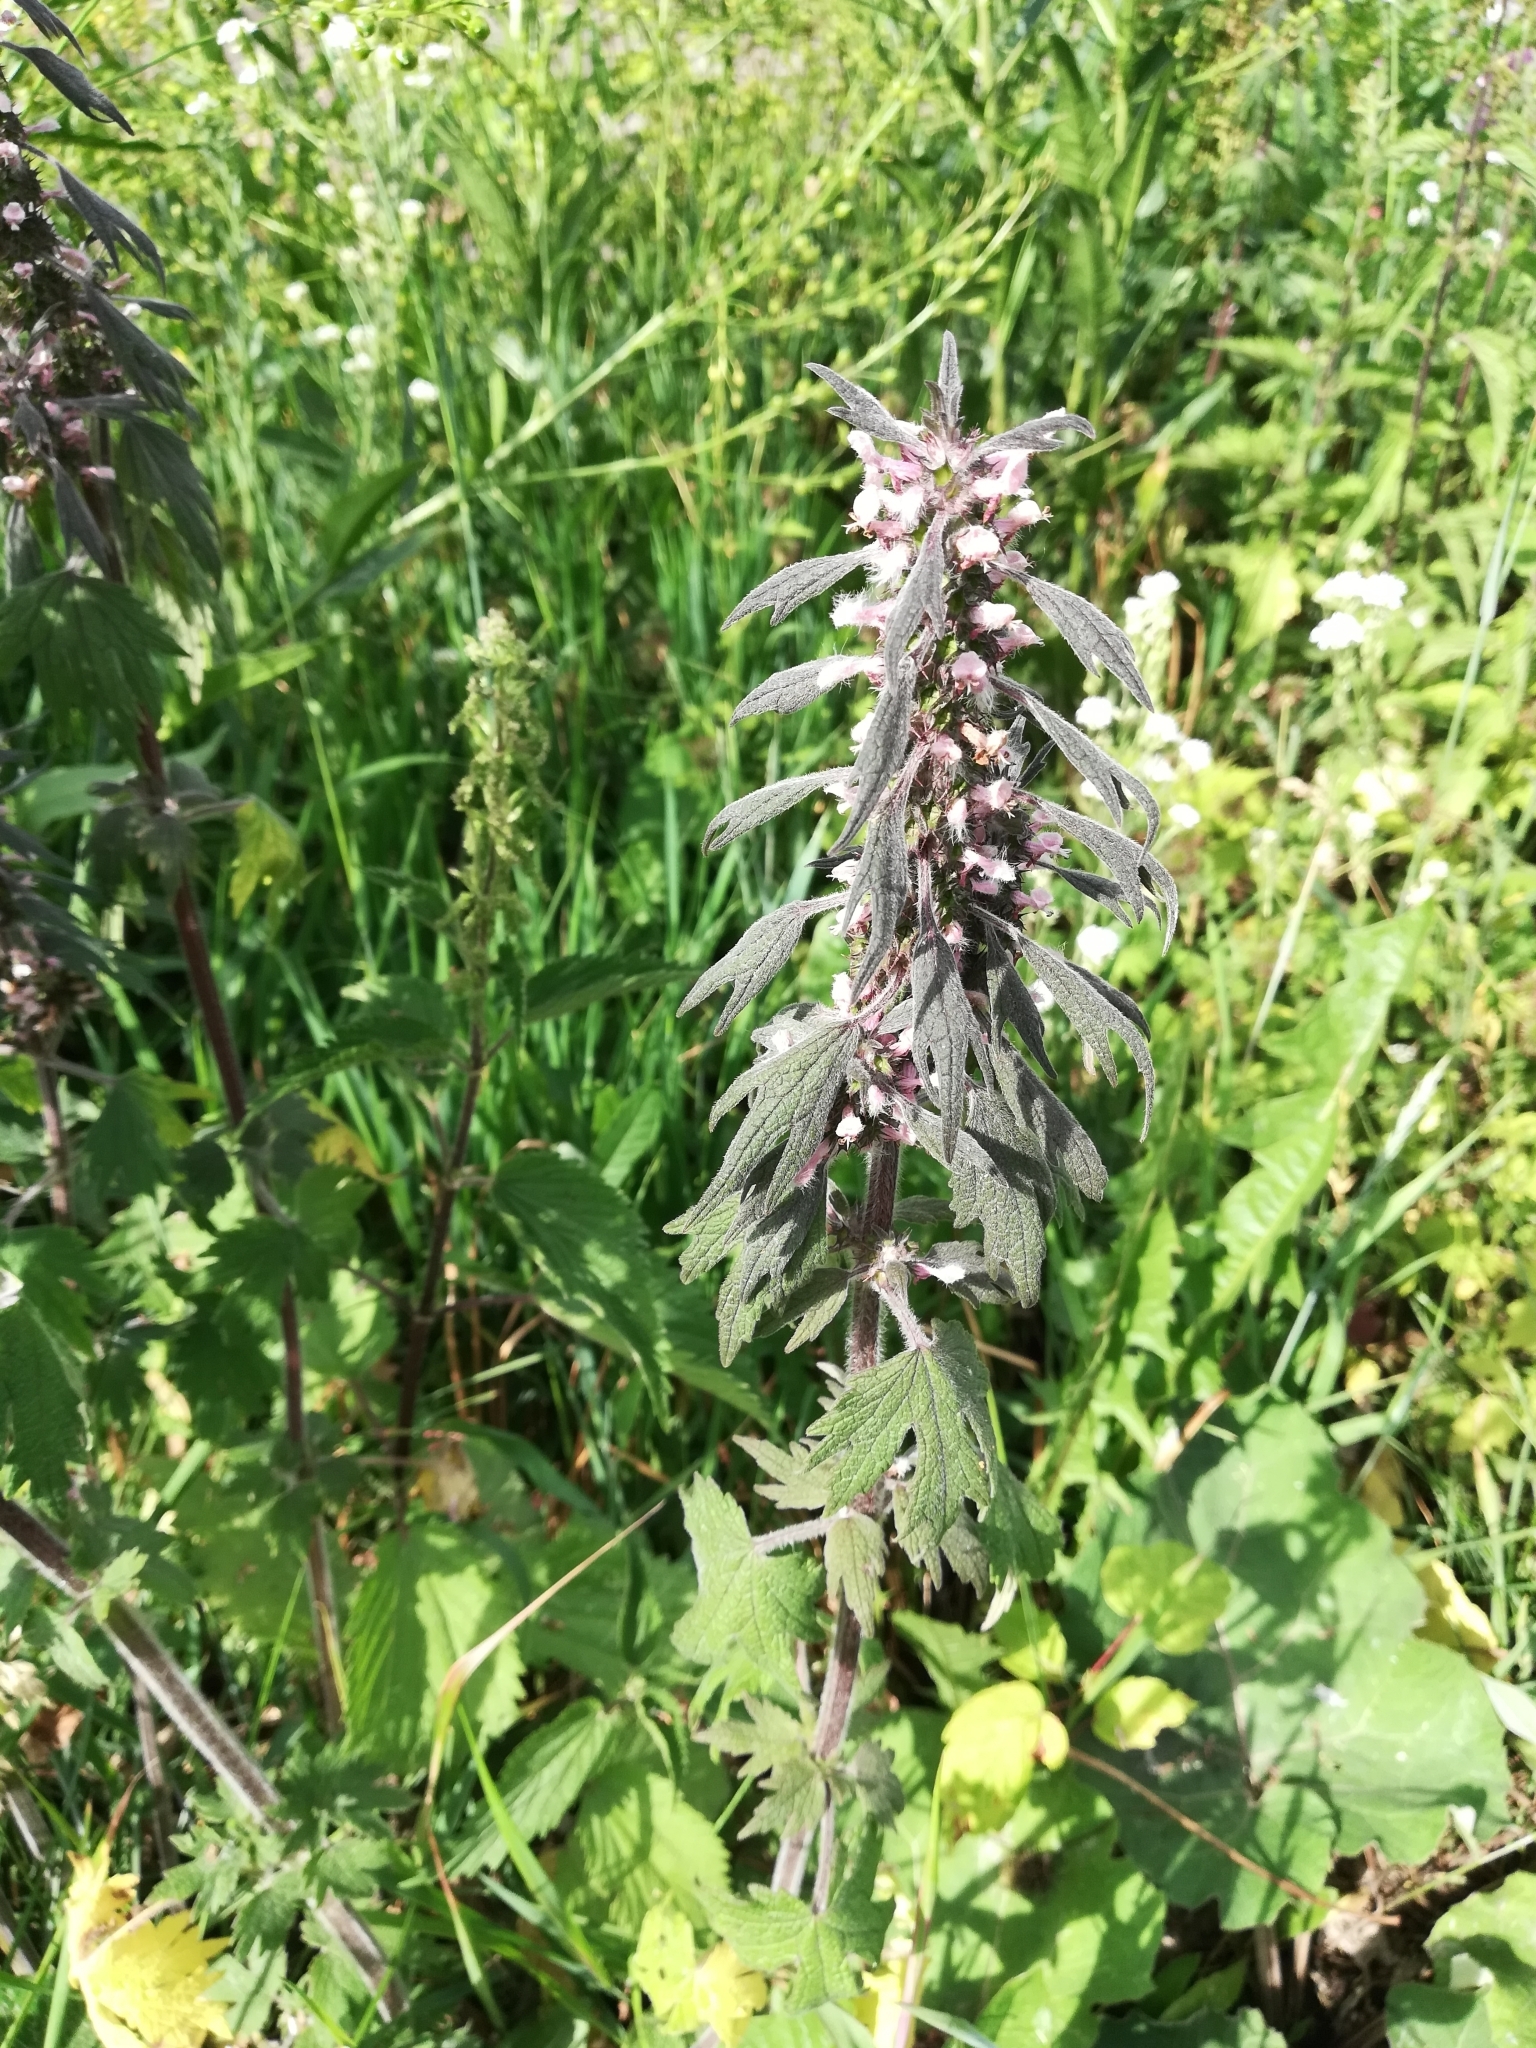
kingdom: Plantae
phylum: Tracheophyta
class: Magnoliopsida
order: Lamiales
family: Lamiaceae
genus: Leonurus
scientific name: Leonurus quinquelobatus
